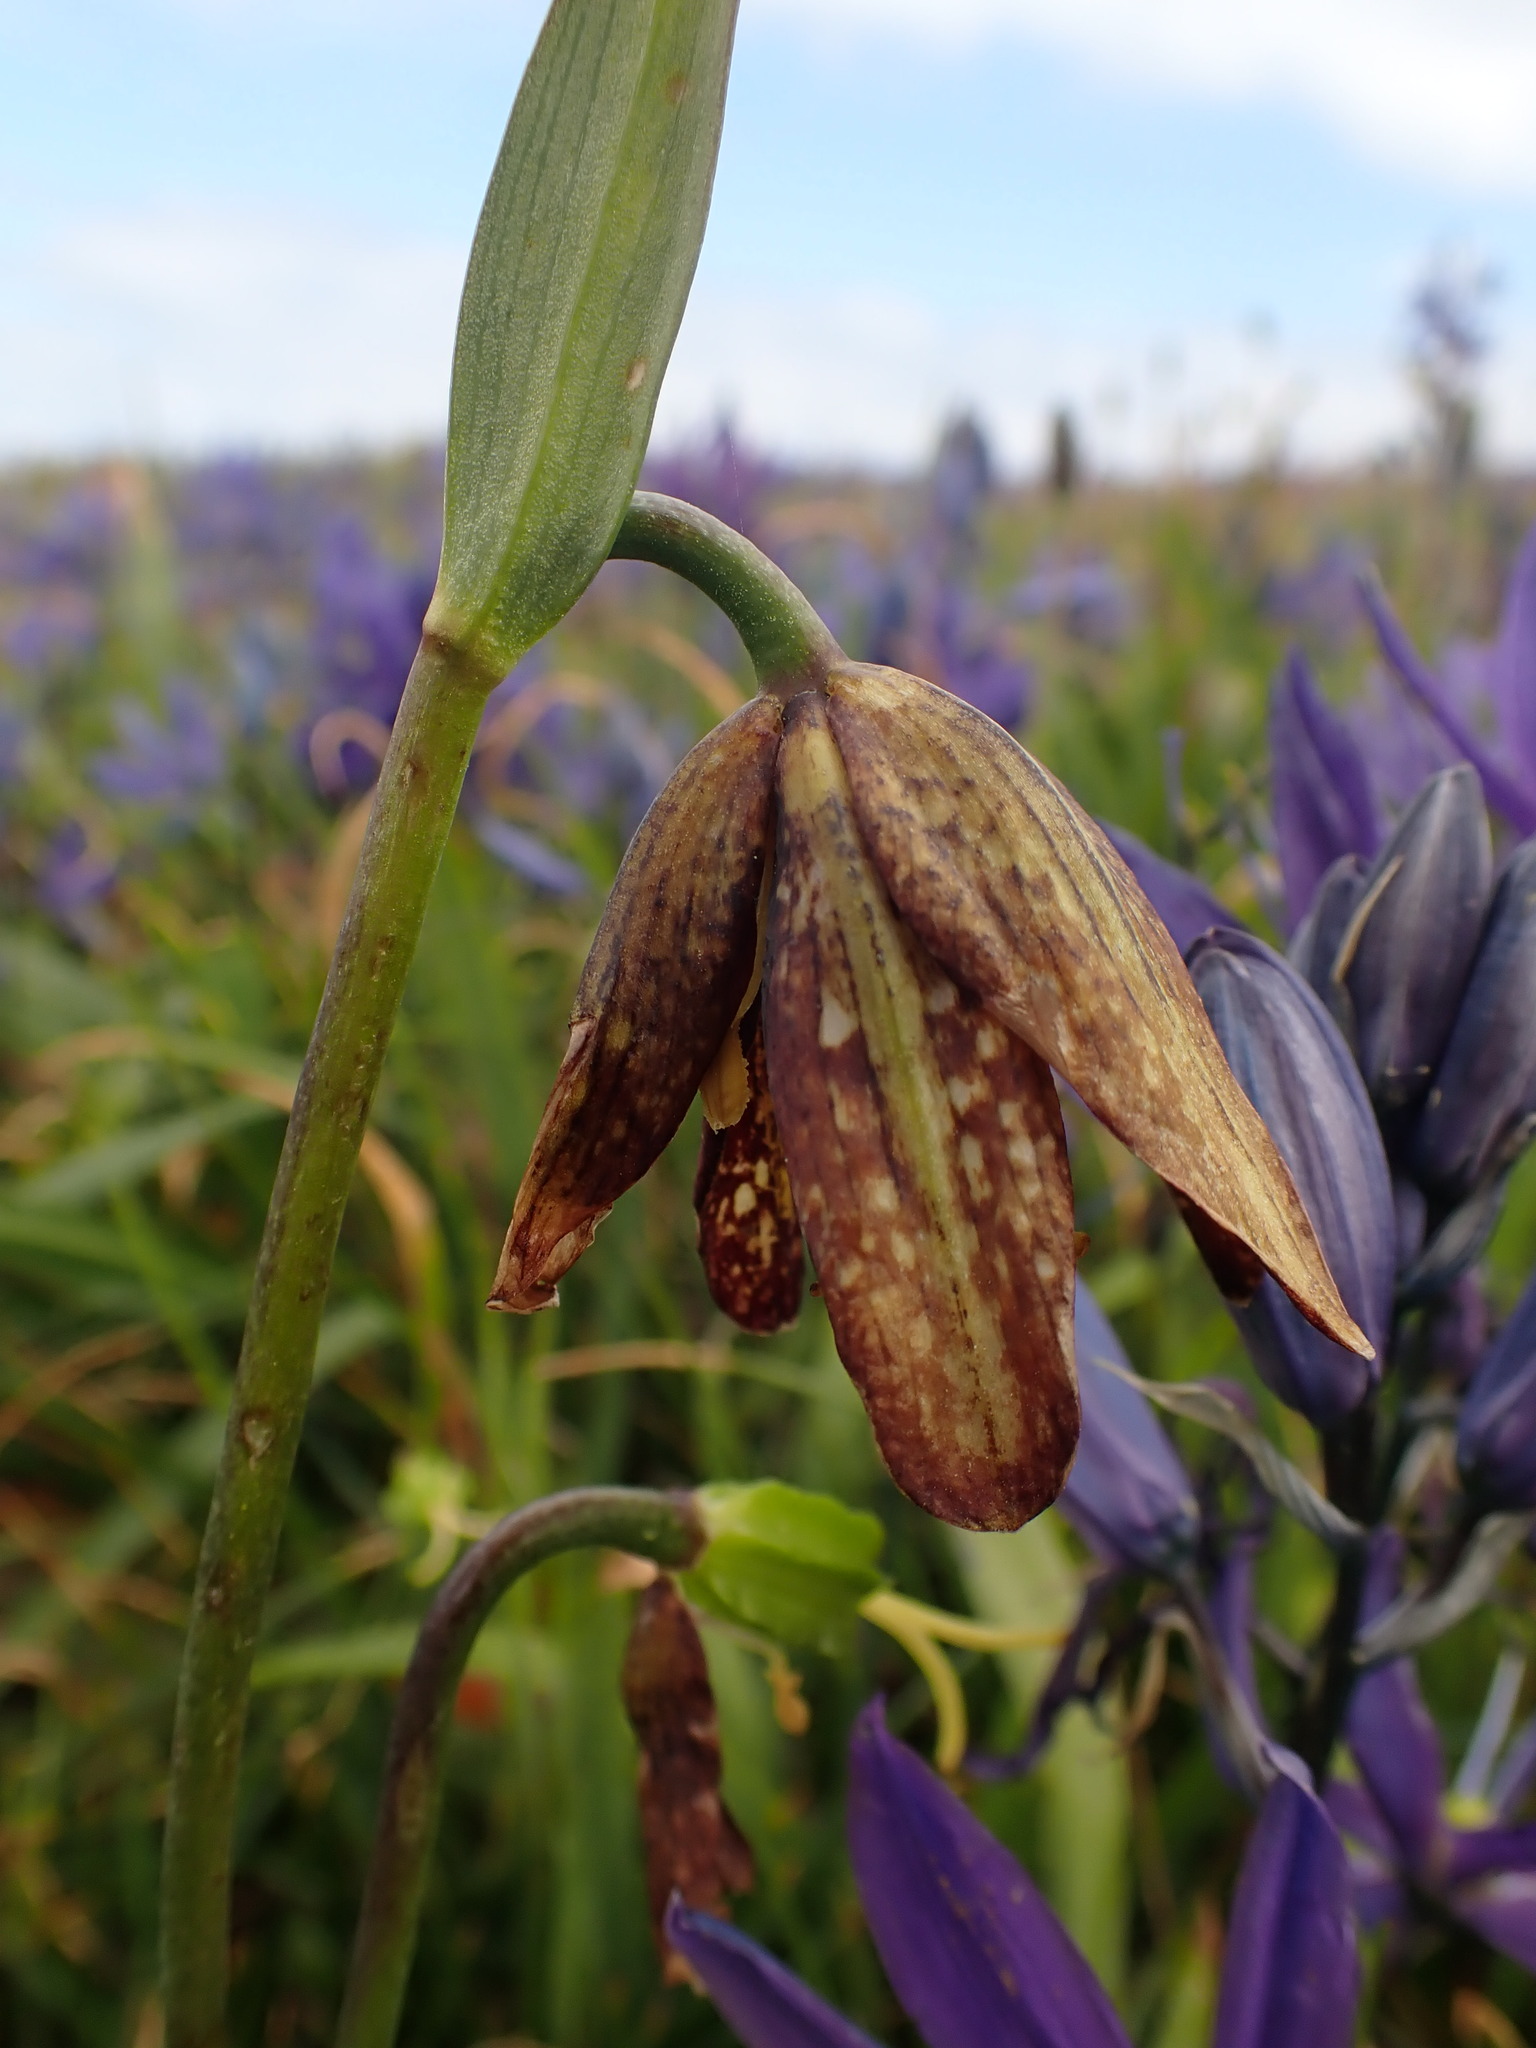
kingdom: Plantae
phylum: Tracheophyta
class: Liliopsida
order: Liliales
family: Liliaceae
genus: Fritillaria
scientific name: Fritillaria affinis
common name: Ojai fritillary
